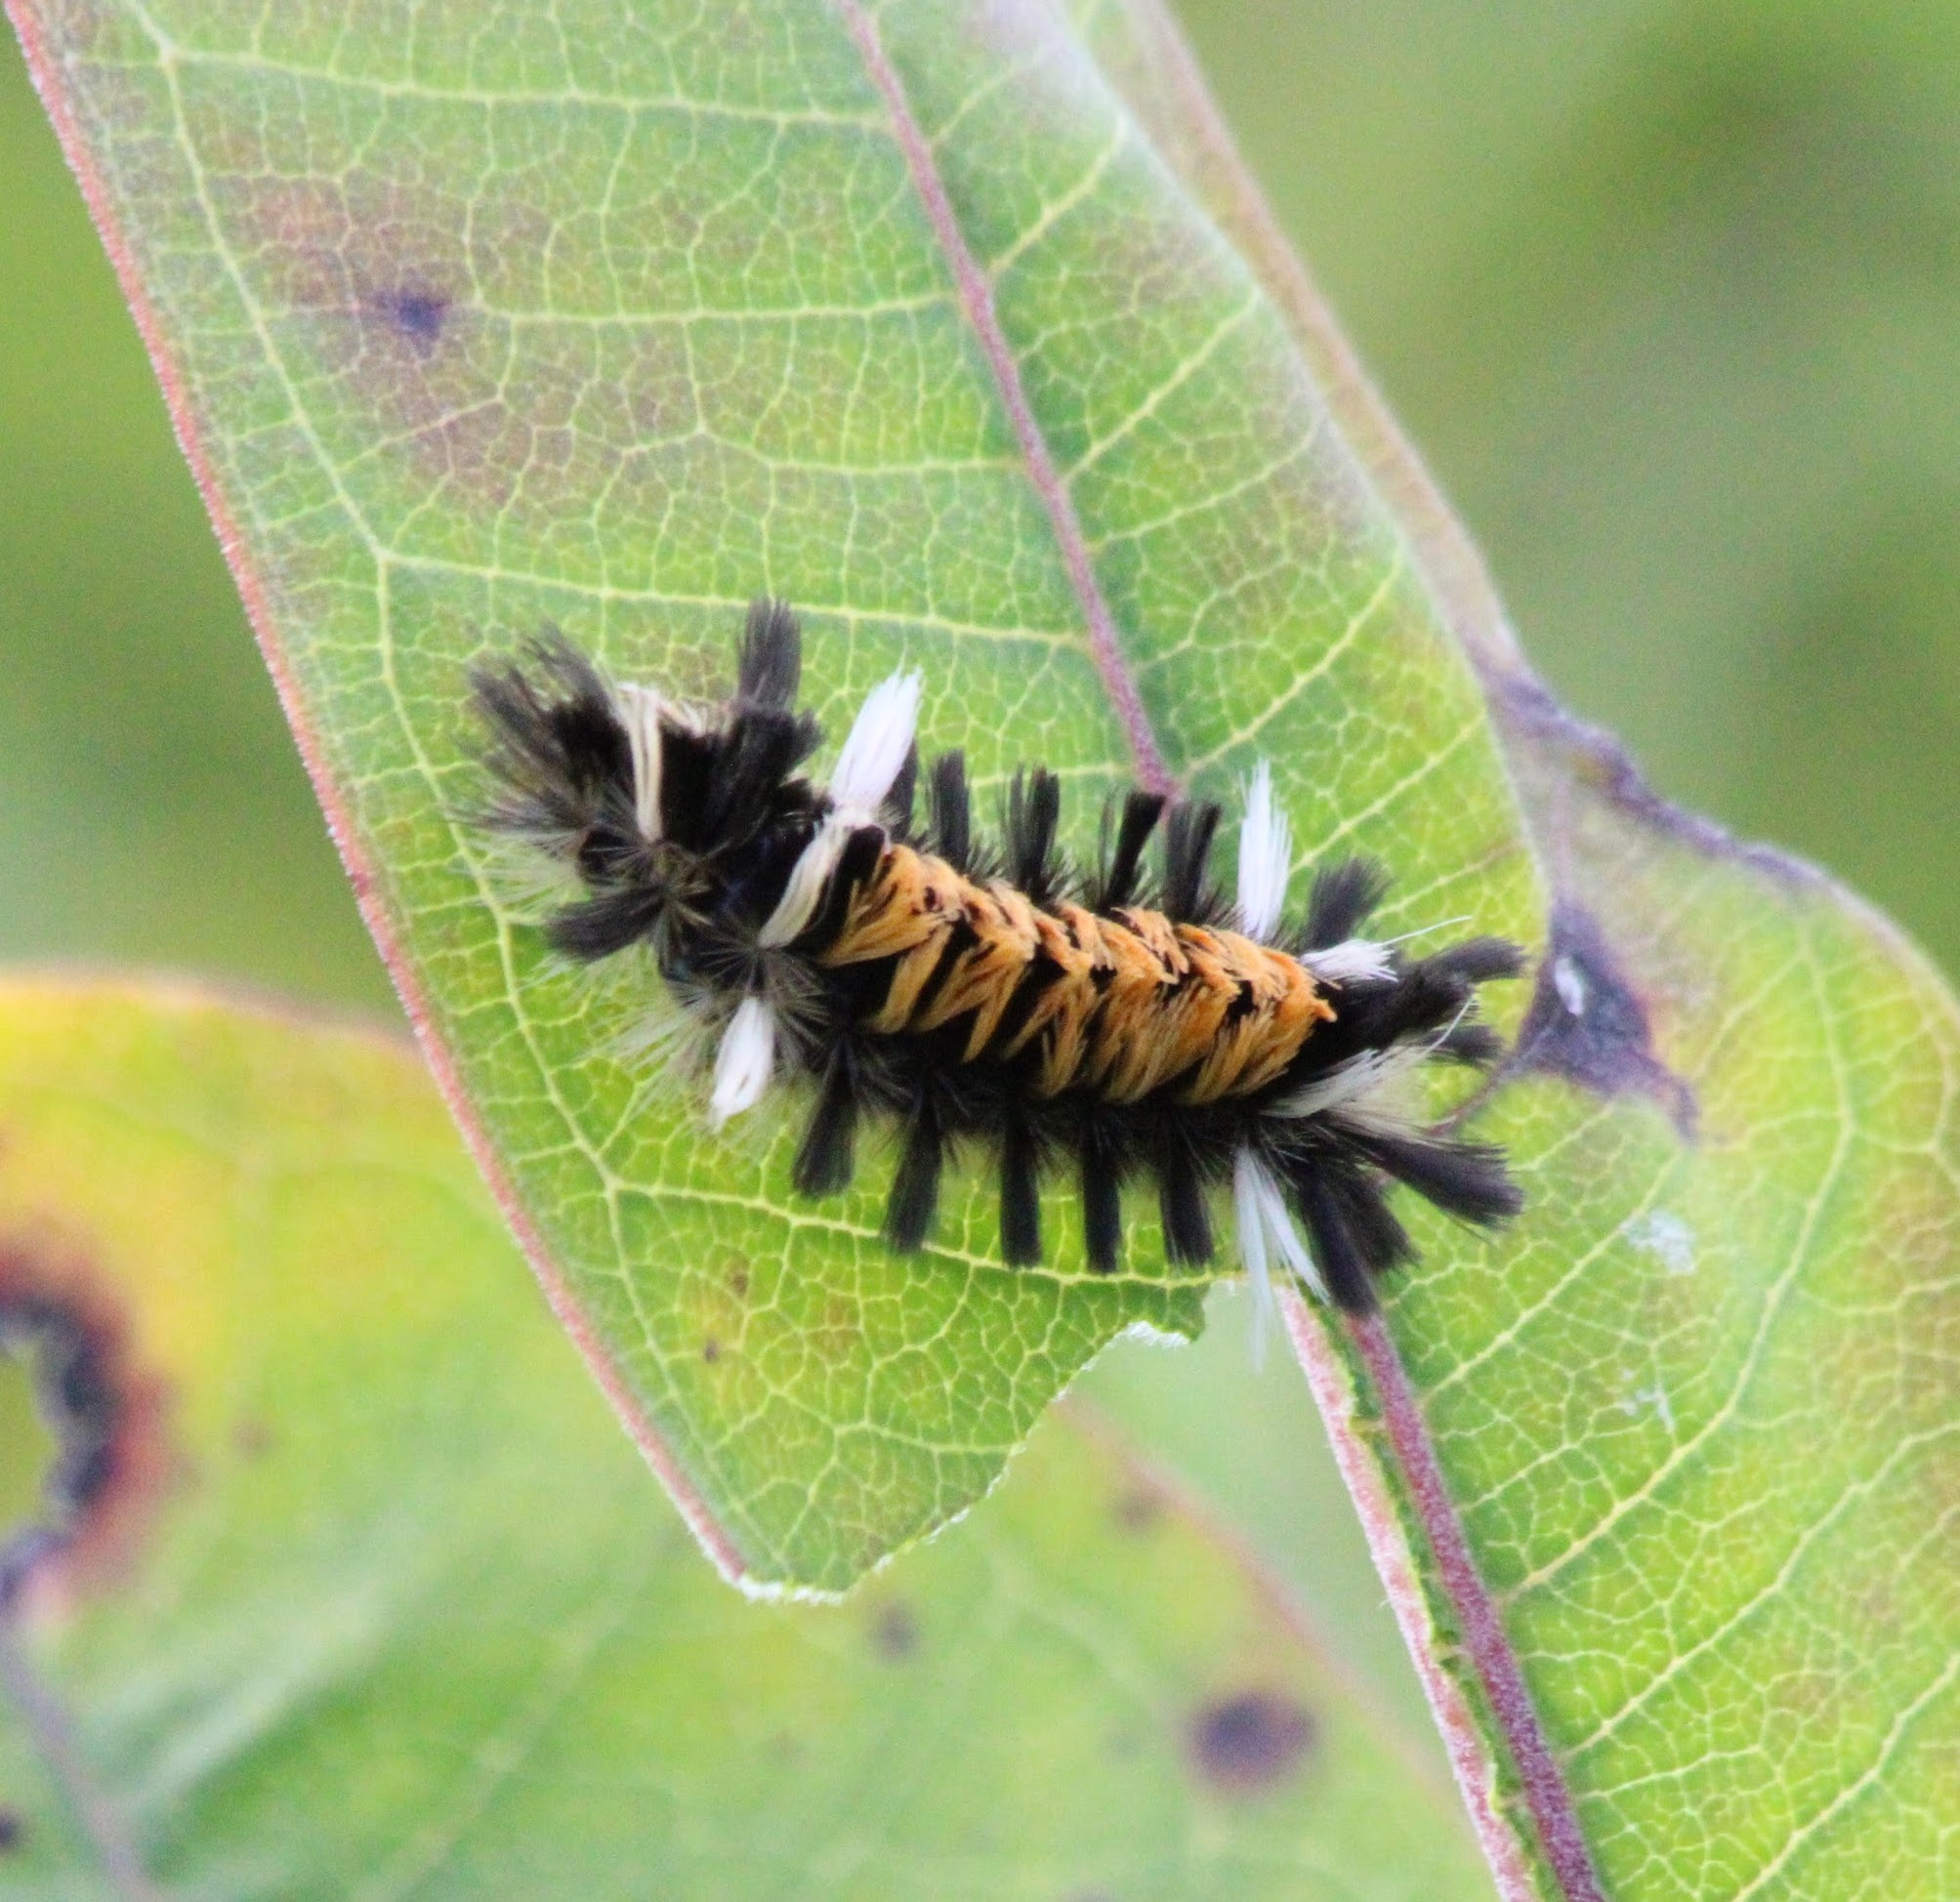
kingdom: Animalia
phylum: Arthropoda
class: Insecta
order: Lepidoptera
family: Erebidae
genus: Euchaetes
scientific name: Euchaetes egle
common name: Milkweed tussock moth
